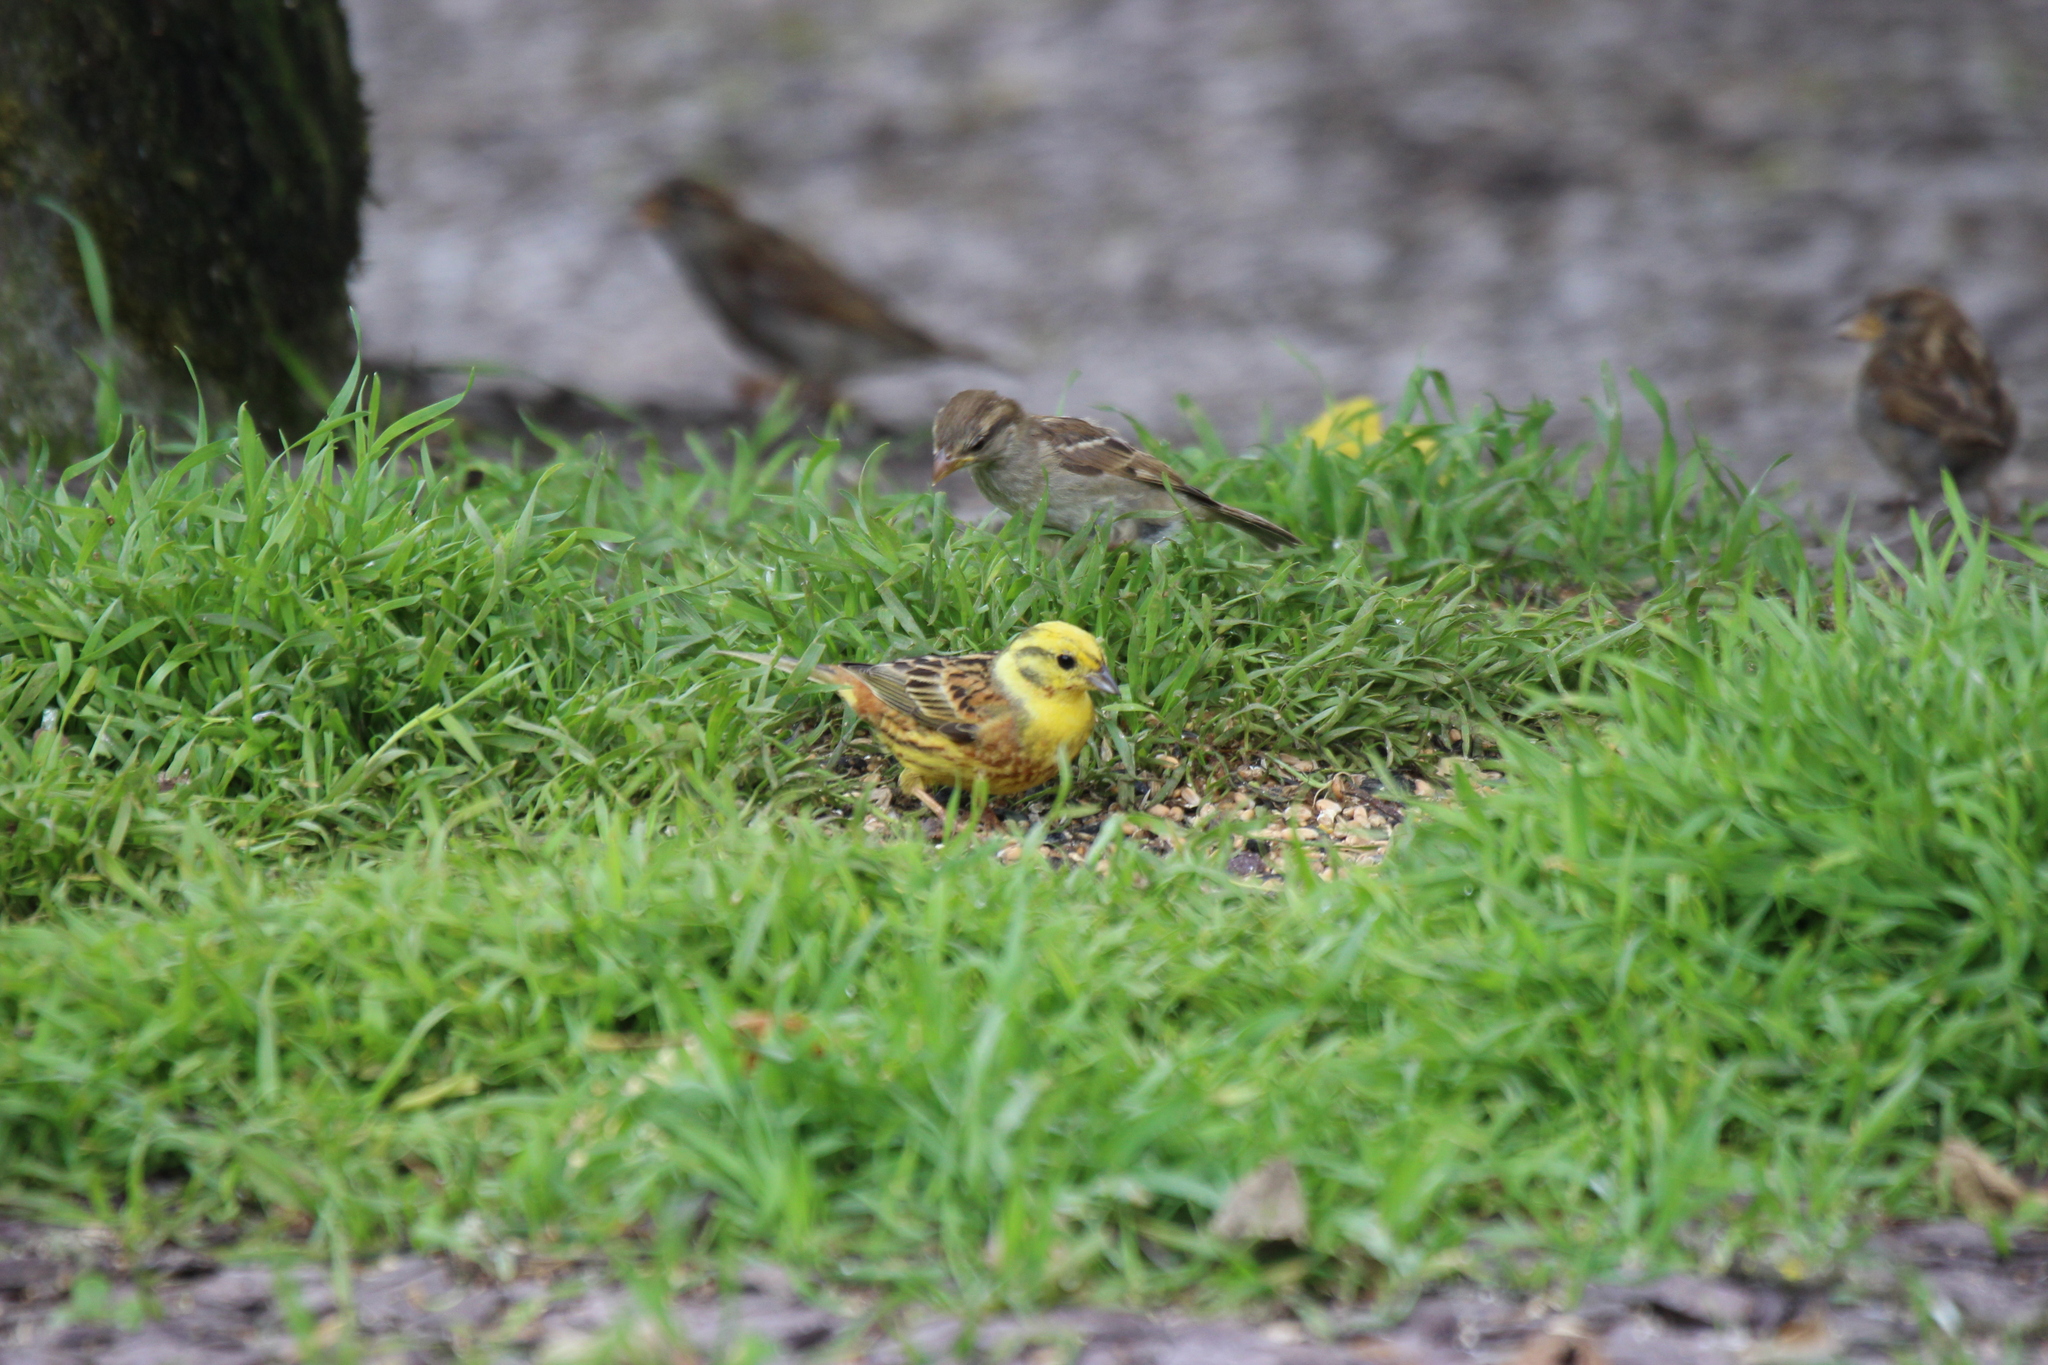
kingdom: Animalia
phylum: Chordata
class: Aves
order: Passeriformes
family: Emberizidae
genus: Emberiza
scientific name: Emberiza citrinella
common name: Yellowhammer
